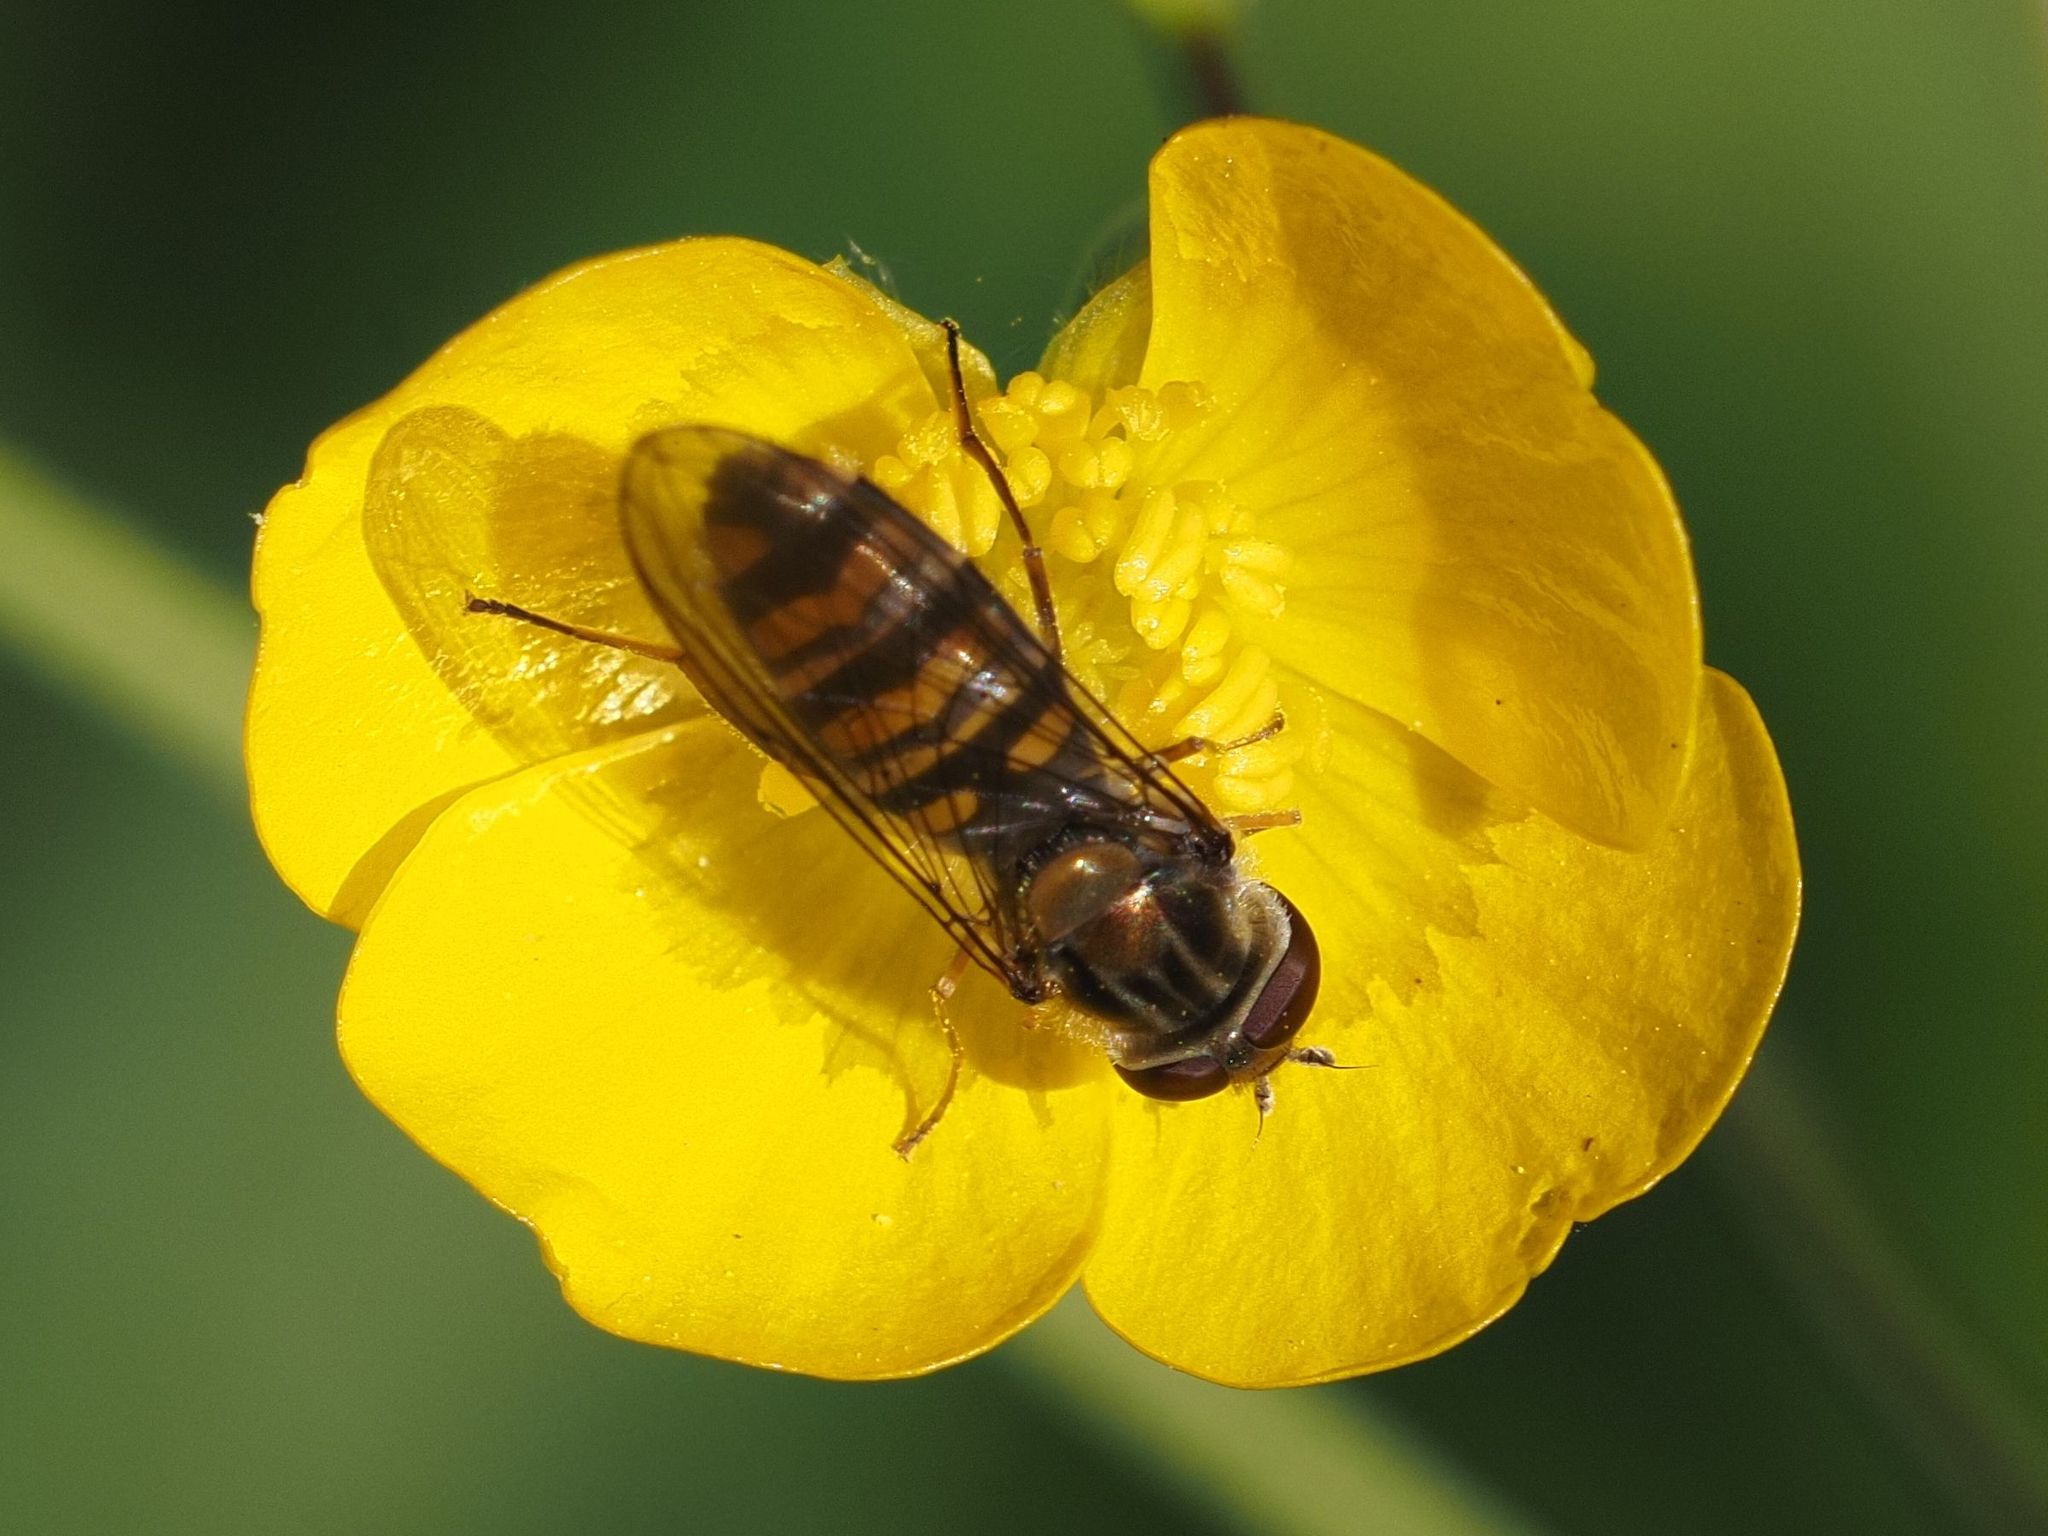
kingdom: Animalia
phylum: Arthropoda
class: Insecta
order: Diptera
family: Syrphidae
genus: Episyrphus
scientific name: Episyrphus balteatus
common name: Marmalade hoverfly
